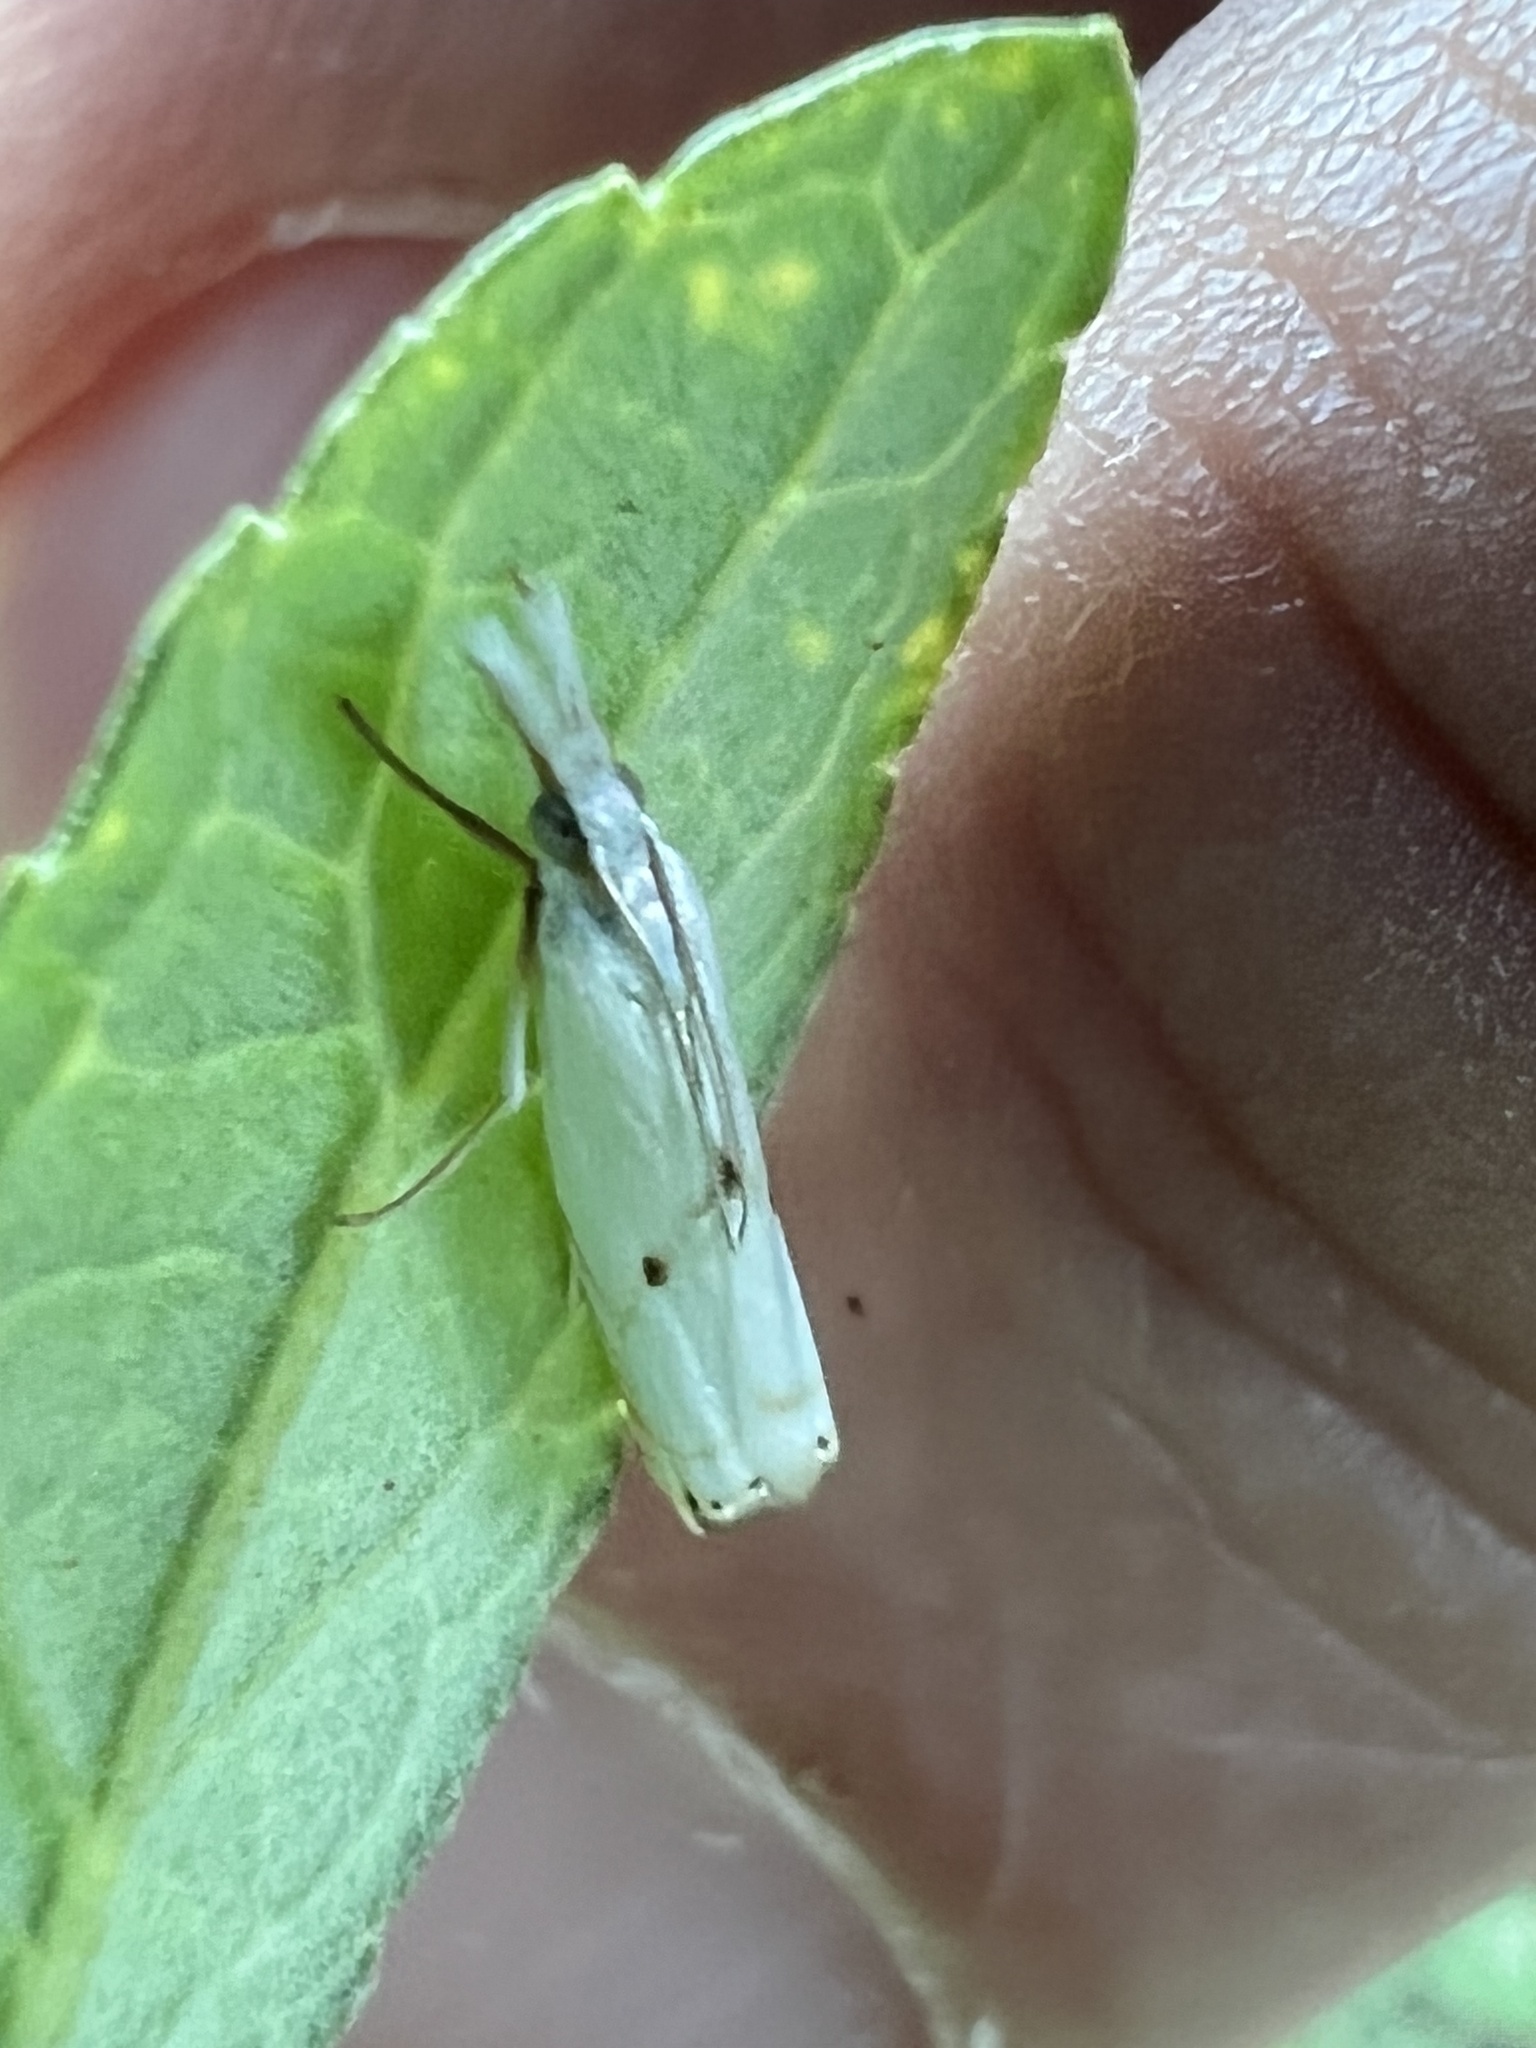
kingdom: Animalia
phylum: Arthropoda
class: Insecta
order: Lepidoptera
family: Crambidae
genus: Microcrambus
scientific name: Microcrambus biguttellus
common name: Gold-stripe grass-veneer moth
